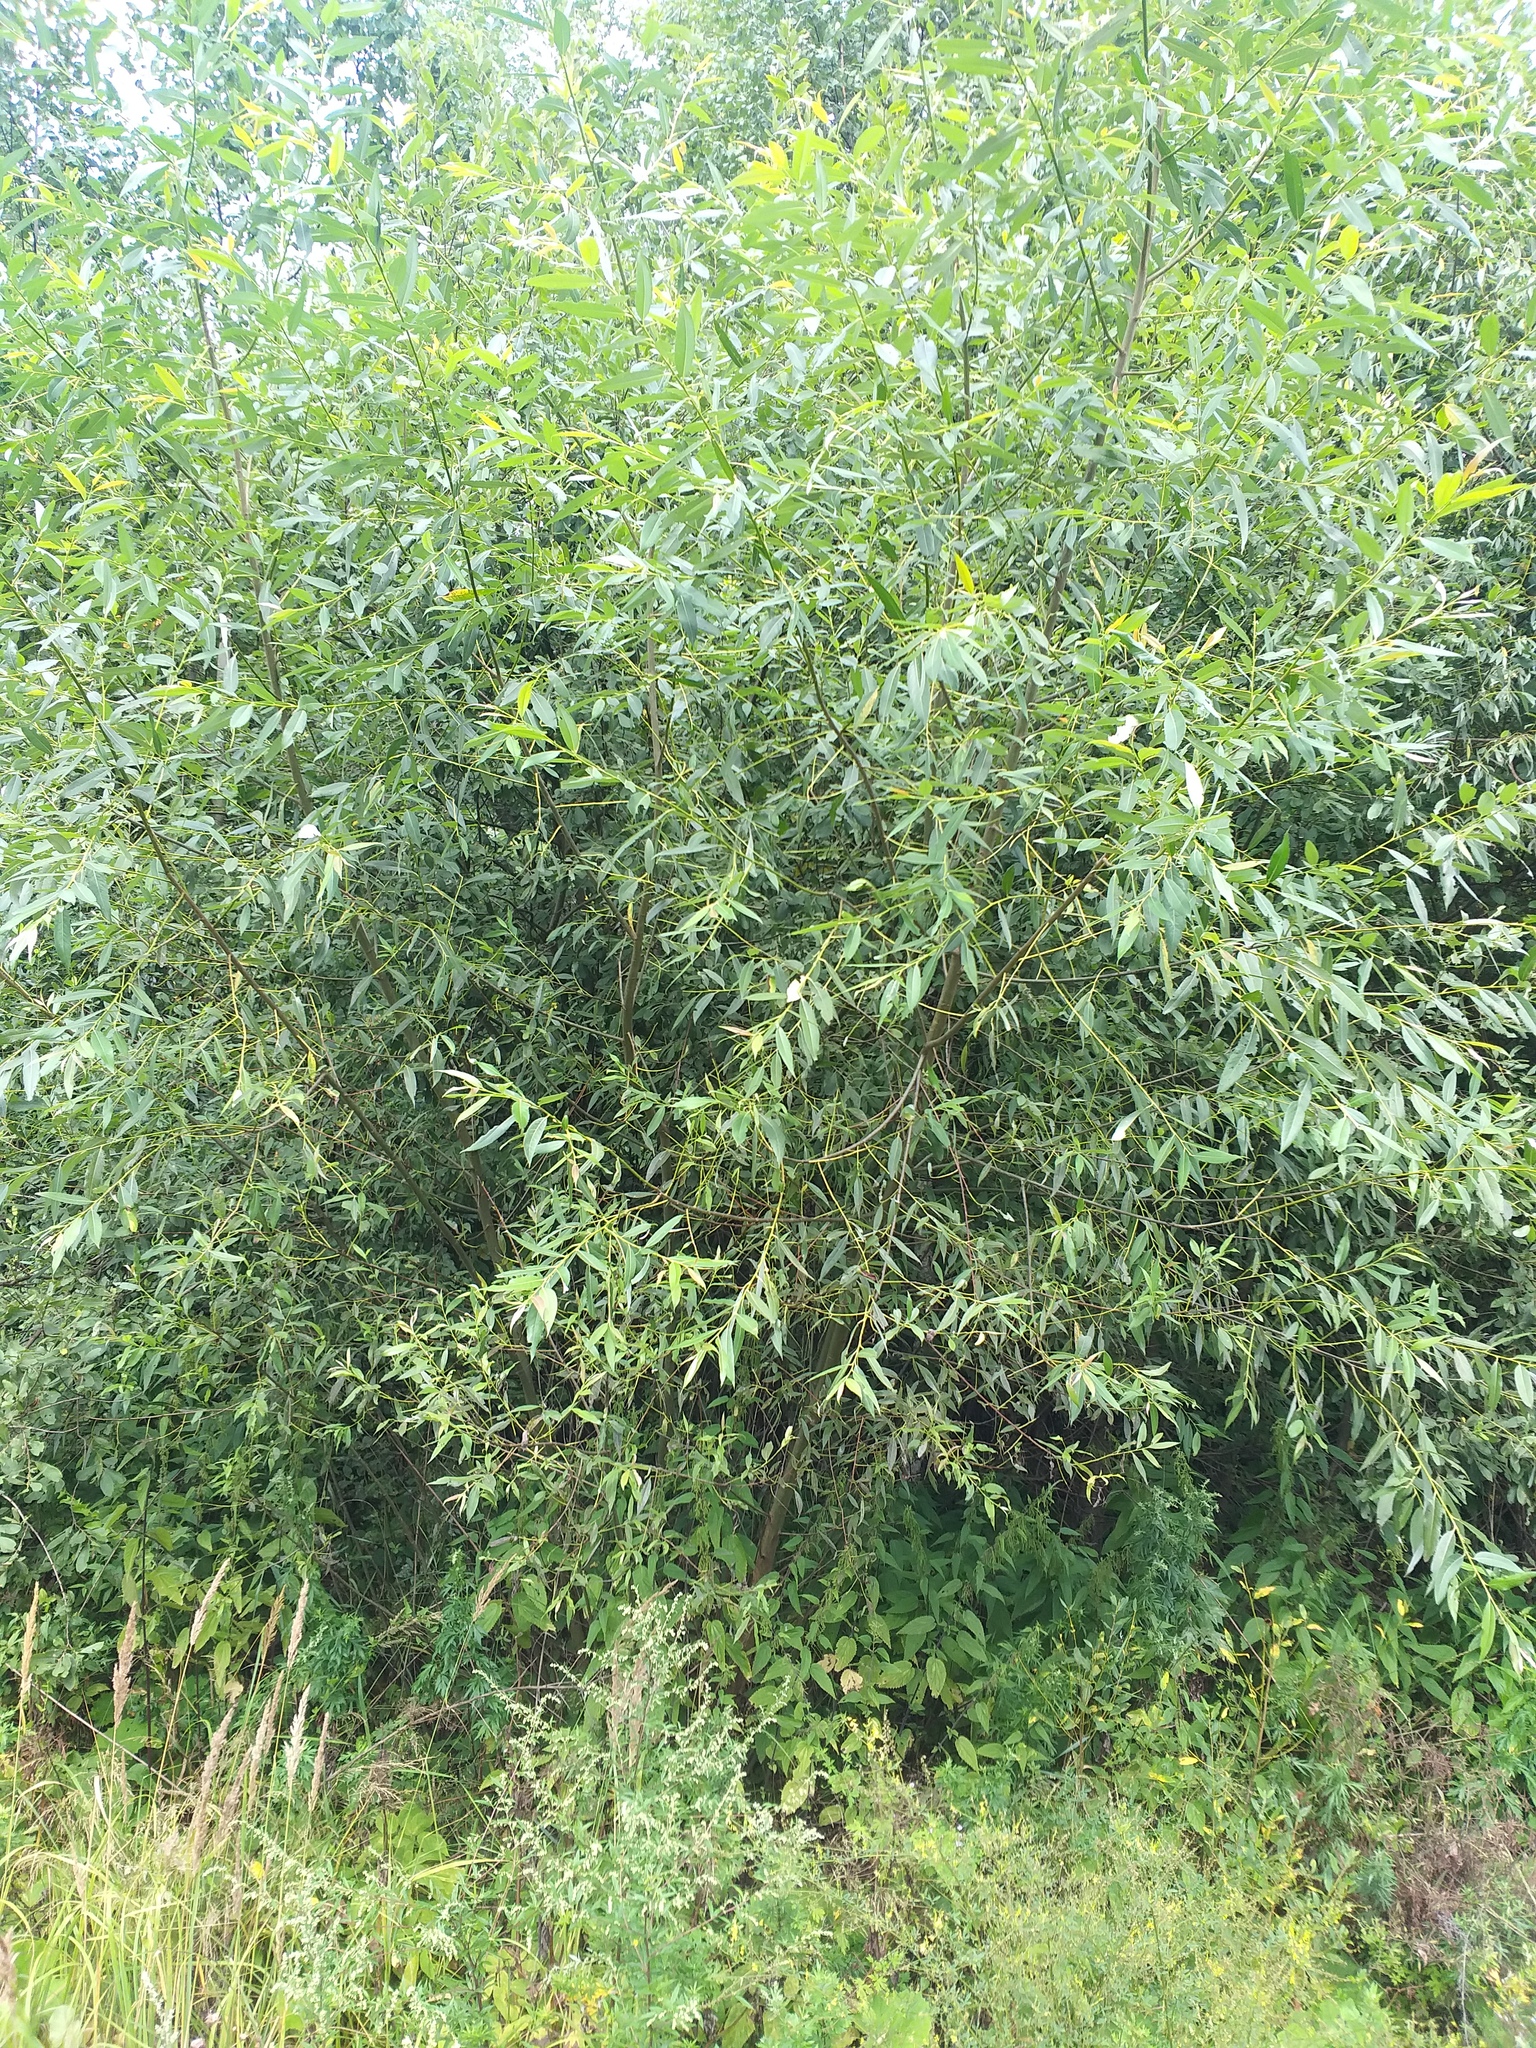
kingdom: Plantae
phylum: Tracheophyta
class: Magnoliopsida
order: Malpighiales
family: Salicaceae
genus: Salix
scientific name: Salix fragilis
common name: Crack willow
